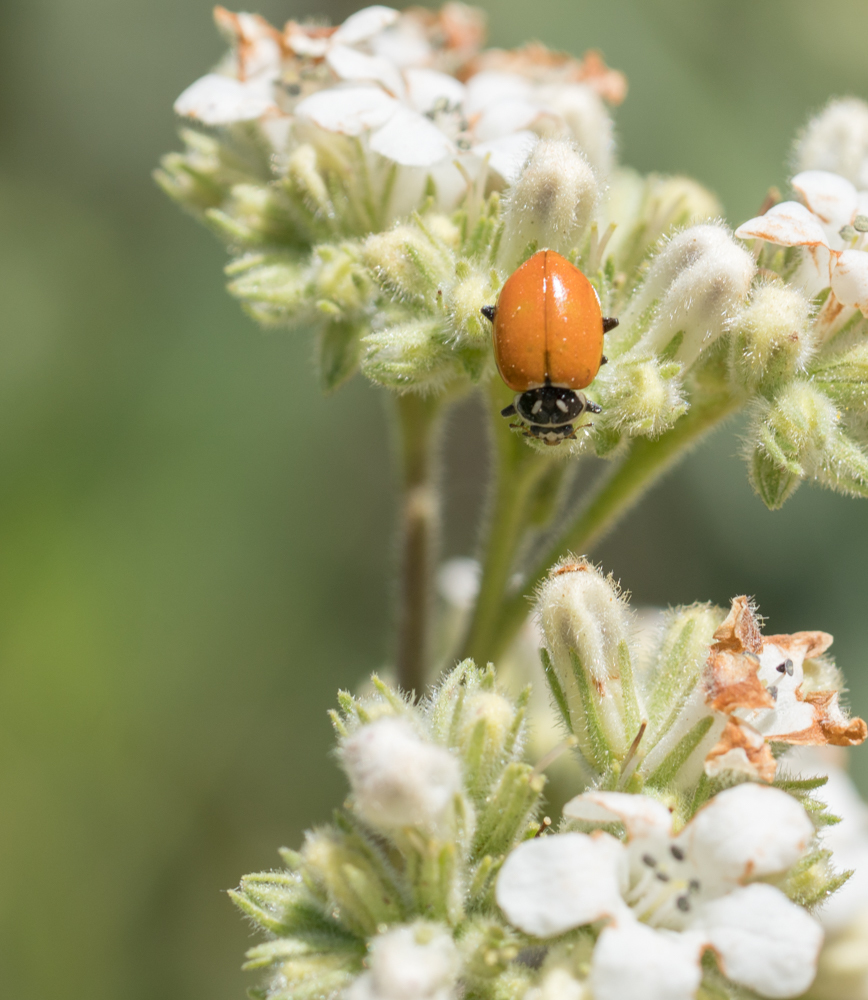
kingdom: Animalia
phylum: Arthropoda
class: Insecta
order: Coleoptera
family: Coccinellidae
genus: Hippodamia
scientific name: Hippodamia convergens
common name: Convergent lady beetle
